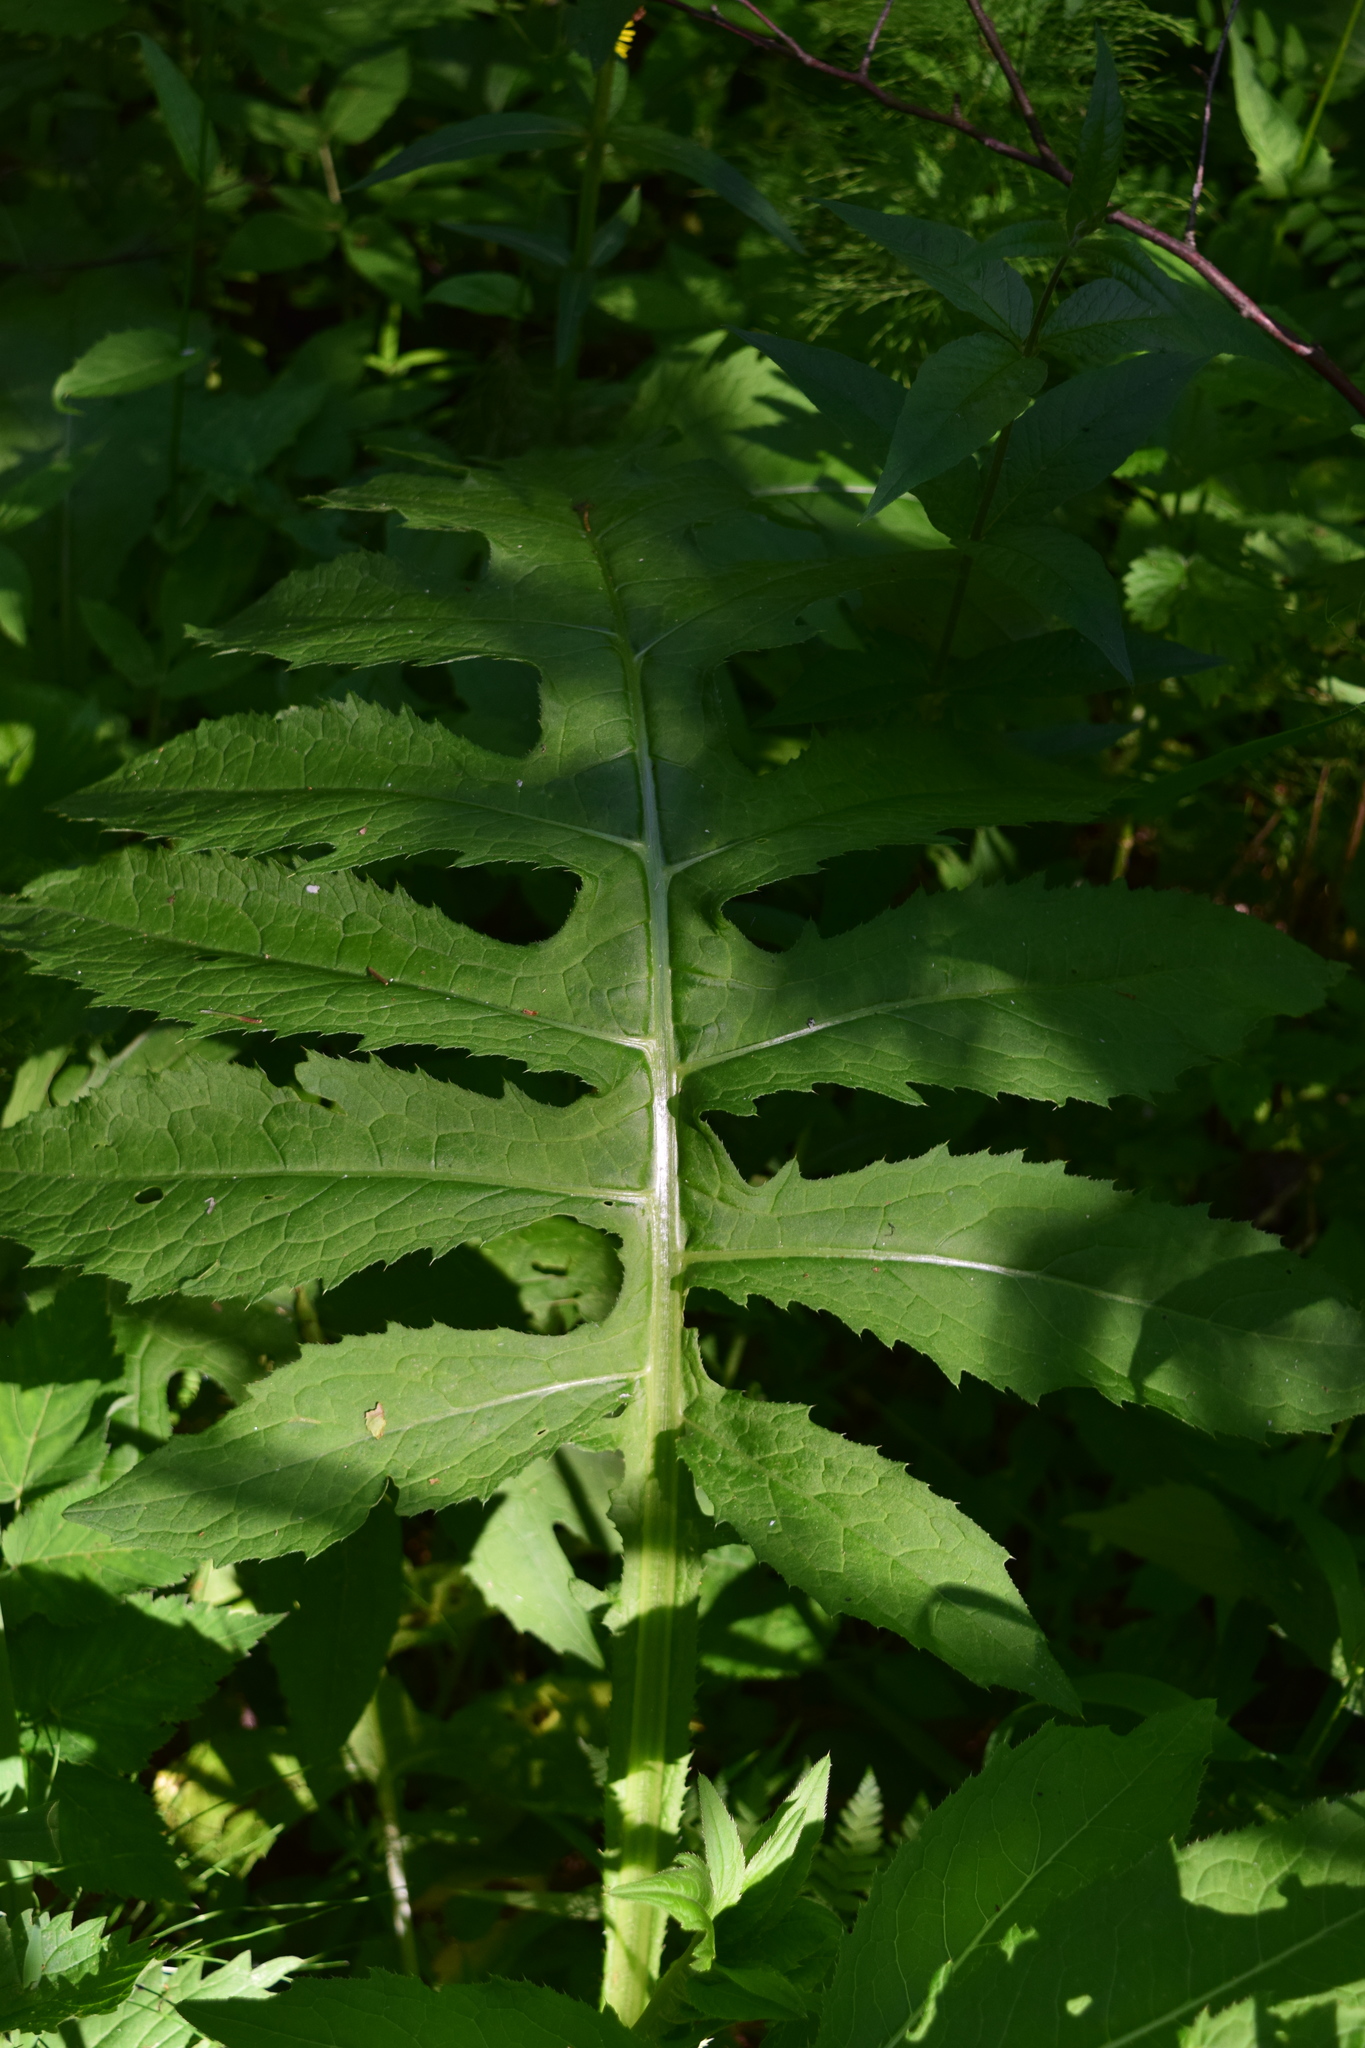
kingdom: Plantae
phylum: Tracheophyta
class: Magnoliopsida
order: Asterales
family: Asteraceae
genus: Cirsium
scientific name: Cirsium oleraceum
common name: Cabbage thistle
